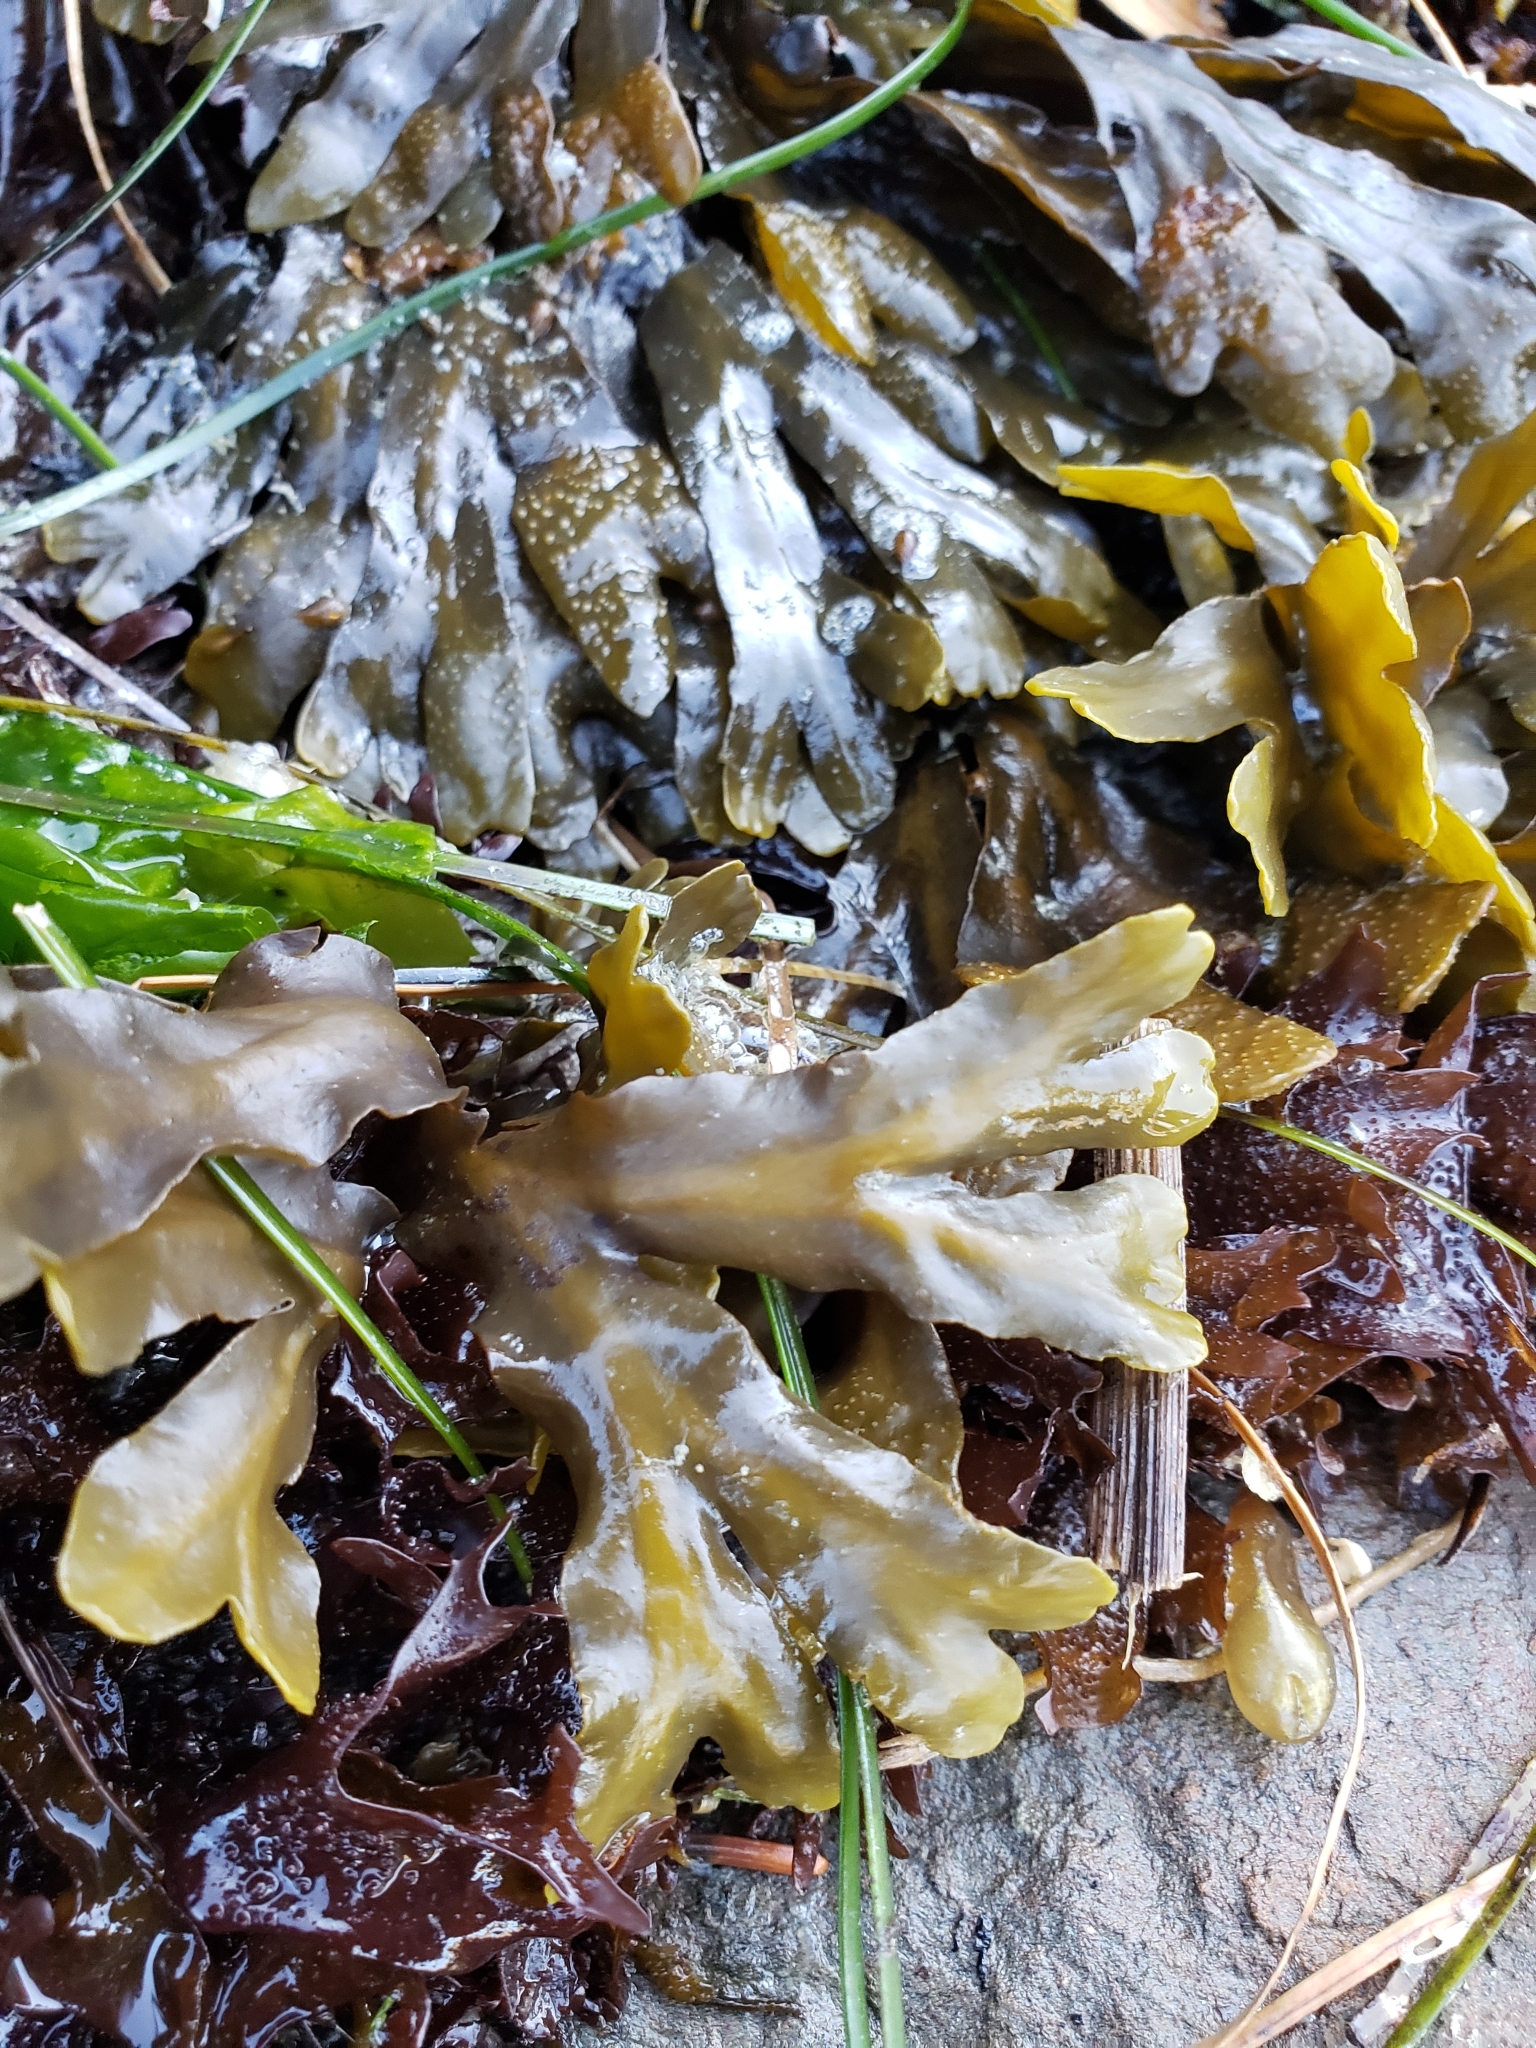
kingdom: Chromista
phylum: Ochrophyta
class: Phaeophyceae
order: Fucales
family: Fucaceae
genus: Fucus
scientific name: Fucus distichus
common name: Rockweed
